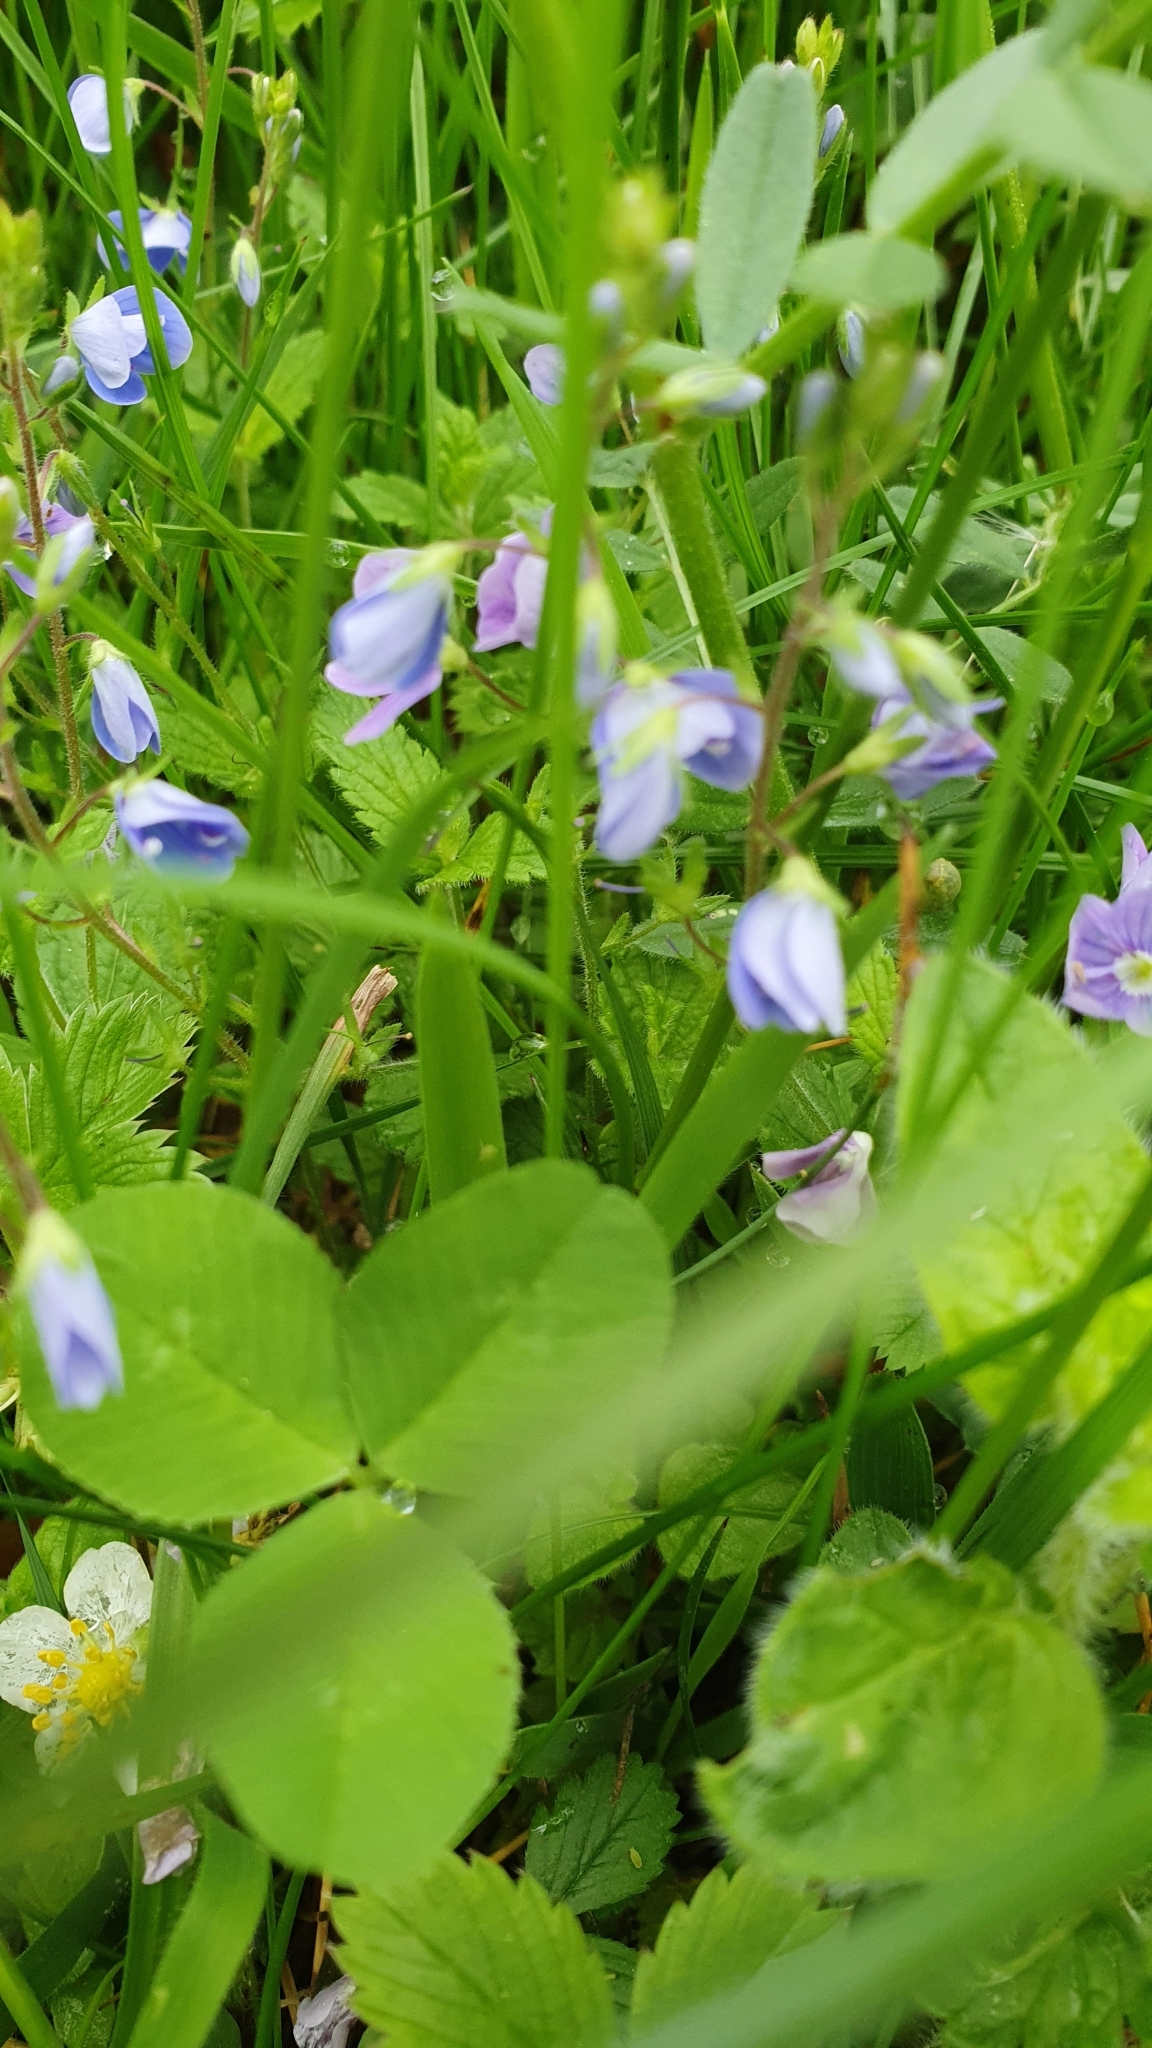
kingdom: Plantae
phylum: Tracheophyta
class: Magnoliopsida
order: Lamiales
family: Plantaginaceae
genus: Veronica
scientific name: Veronica chamaedrys
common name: Germander speedwell
